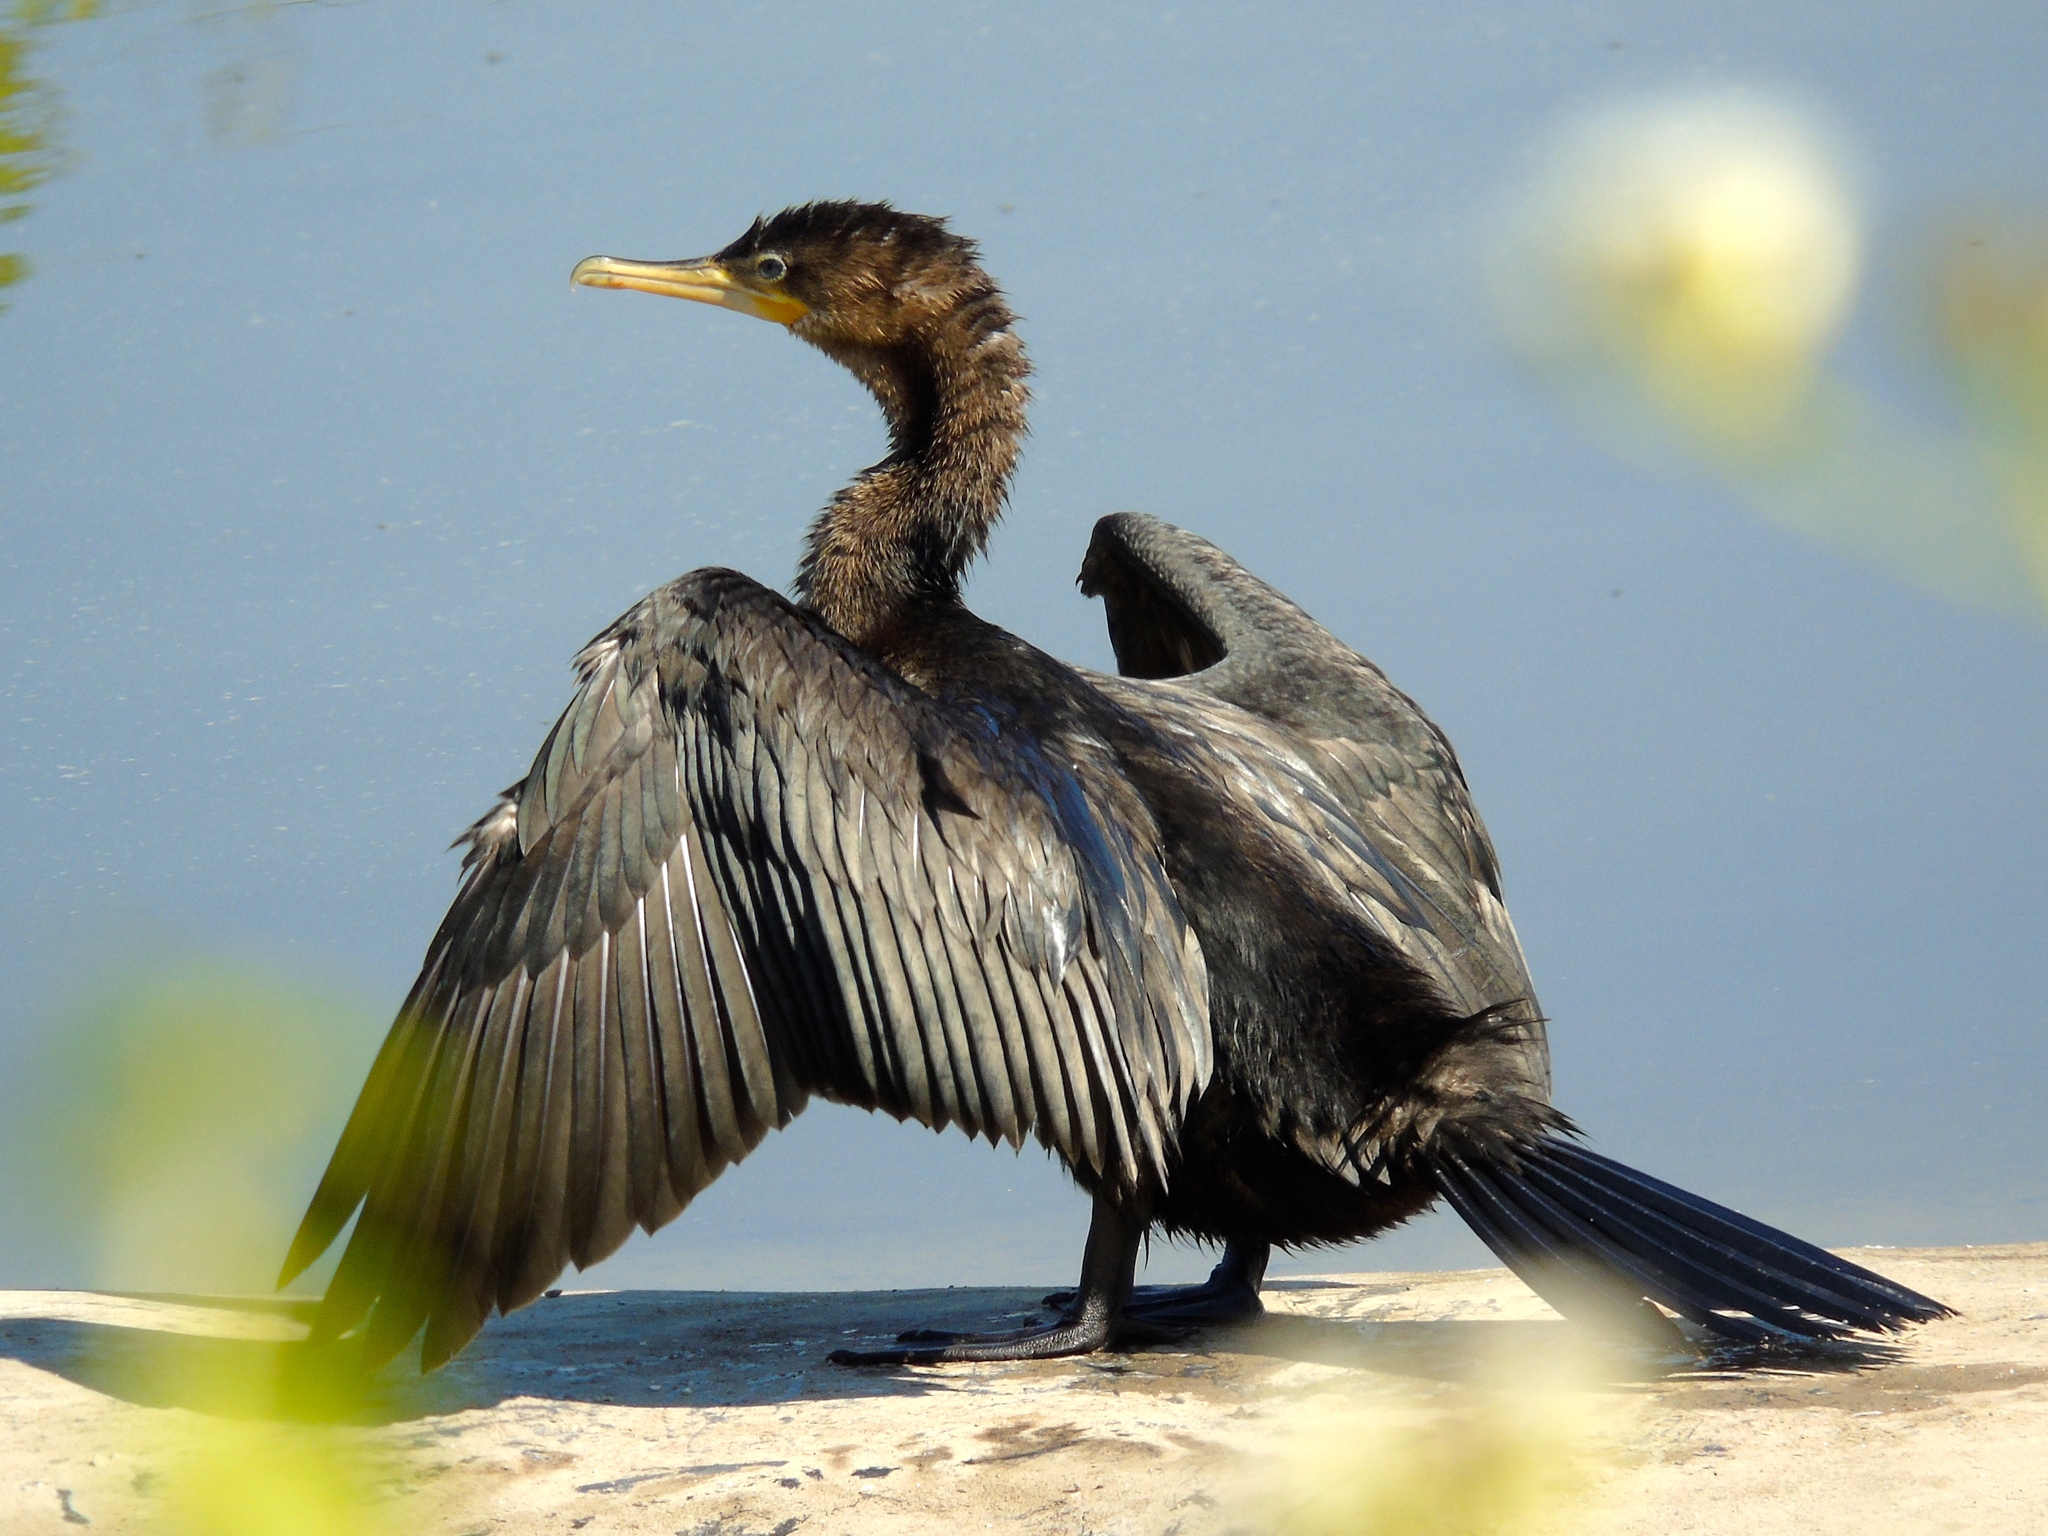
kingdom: Animalia
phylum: Chordata
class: Aves
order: Suliformes
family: Phalacrocoracidae
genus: Phalacrocorax
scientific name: Phalacrocorax brasilianus
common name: Neotropic cormorant
